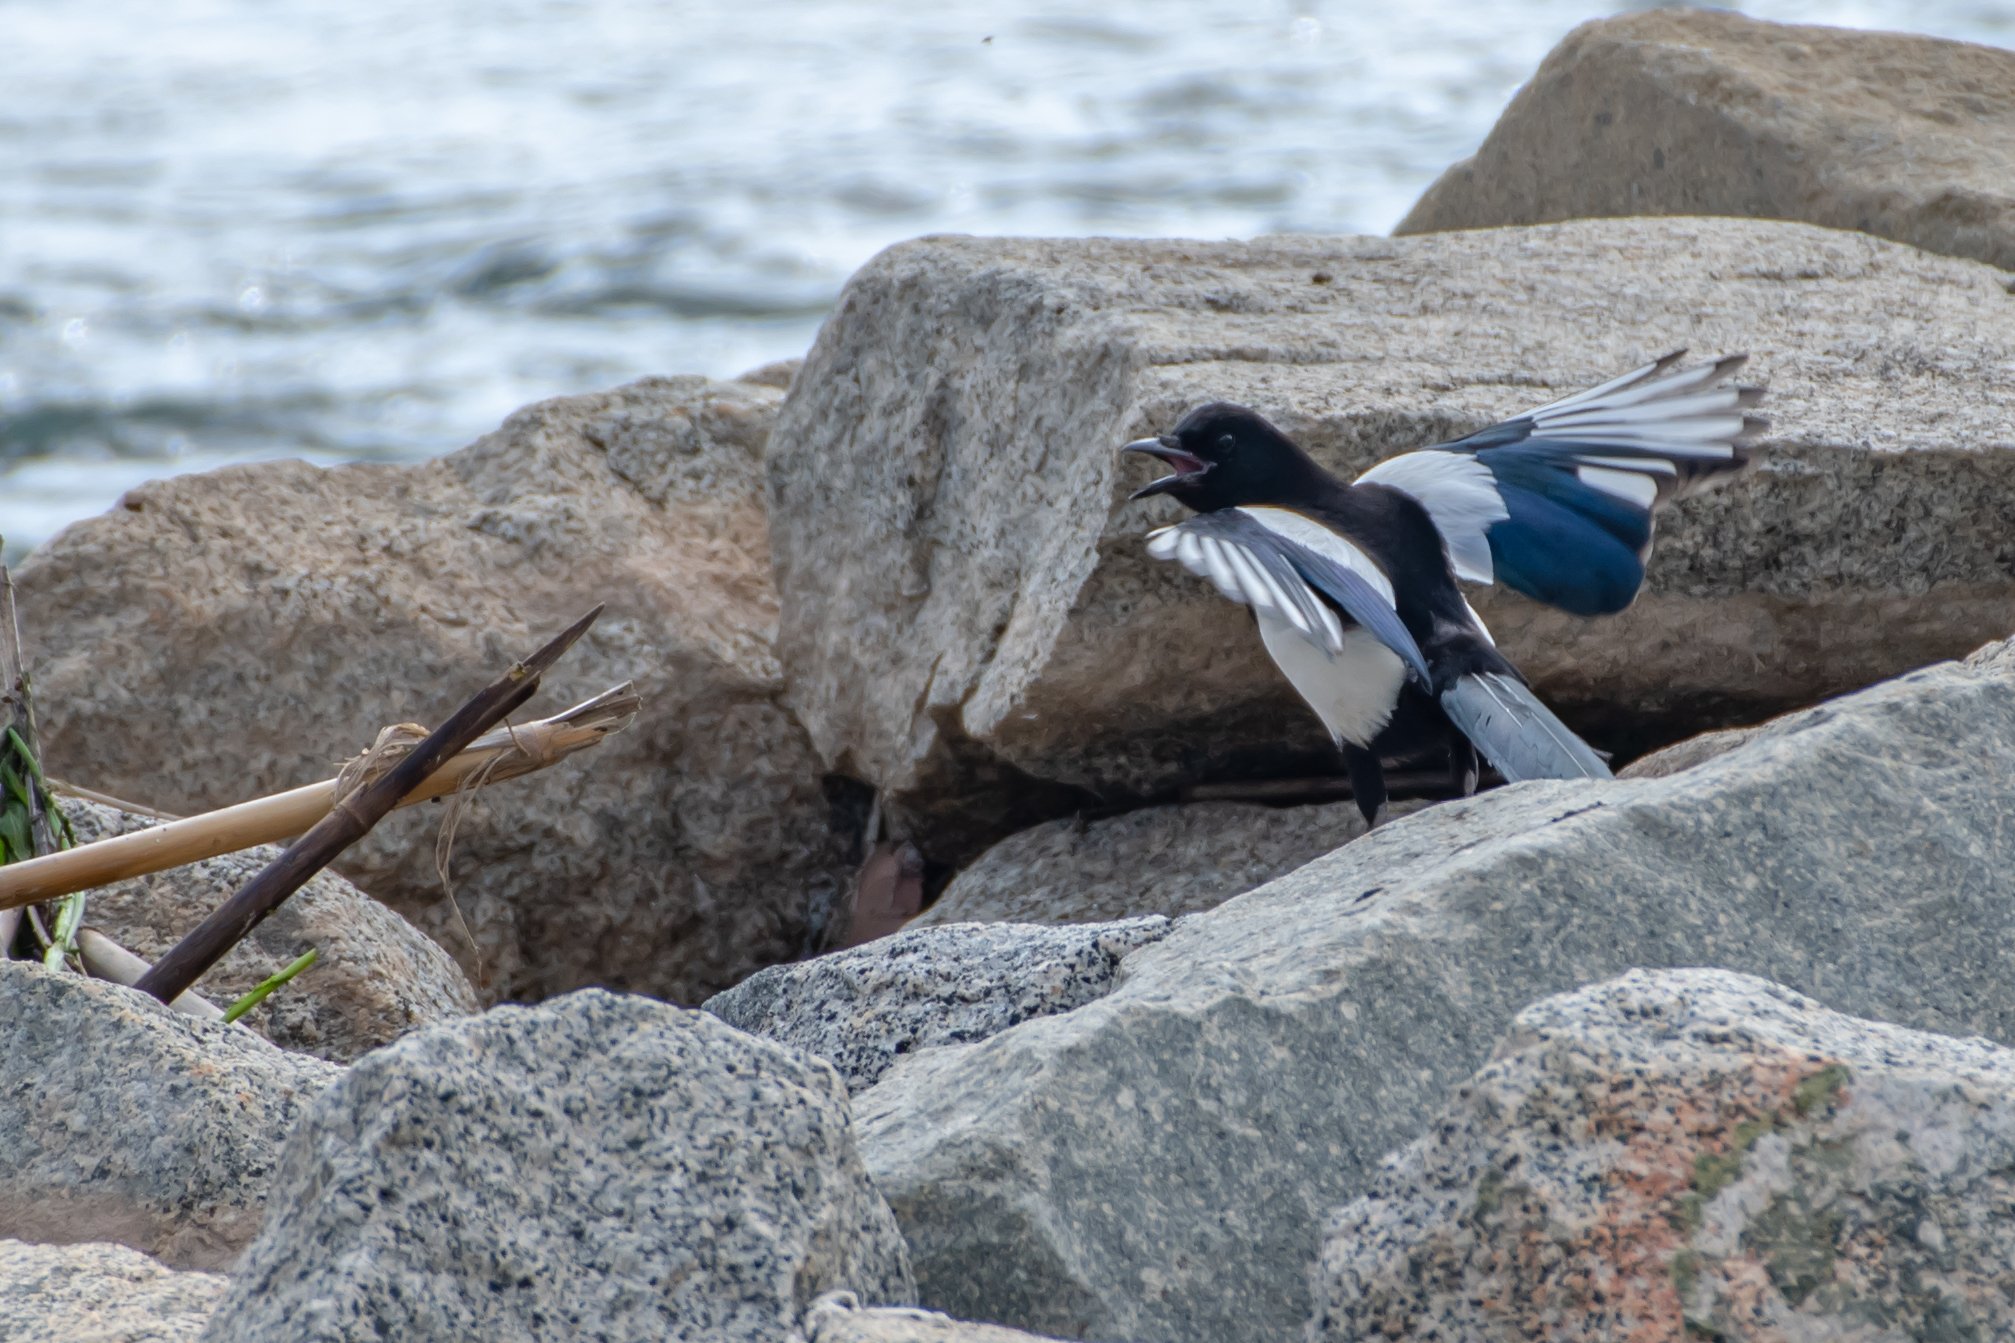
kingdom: Animalia
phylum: Chordata
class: Aves
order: Passeriformes
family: Corvidae
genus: Pica
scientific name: Pica pica
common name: Eurasian magpie
